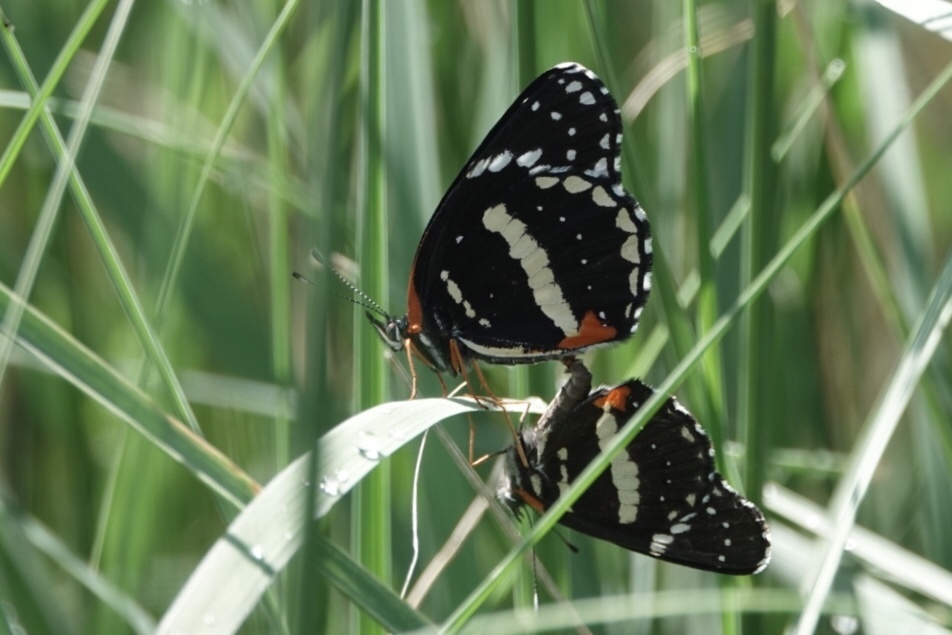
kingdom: Animalia
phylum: Arthropoda
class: Insecta
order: Lepidoptera
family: Nymphalidae
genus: Chlosyne
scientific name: Chlosyne lacinia
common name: Bordered patch
